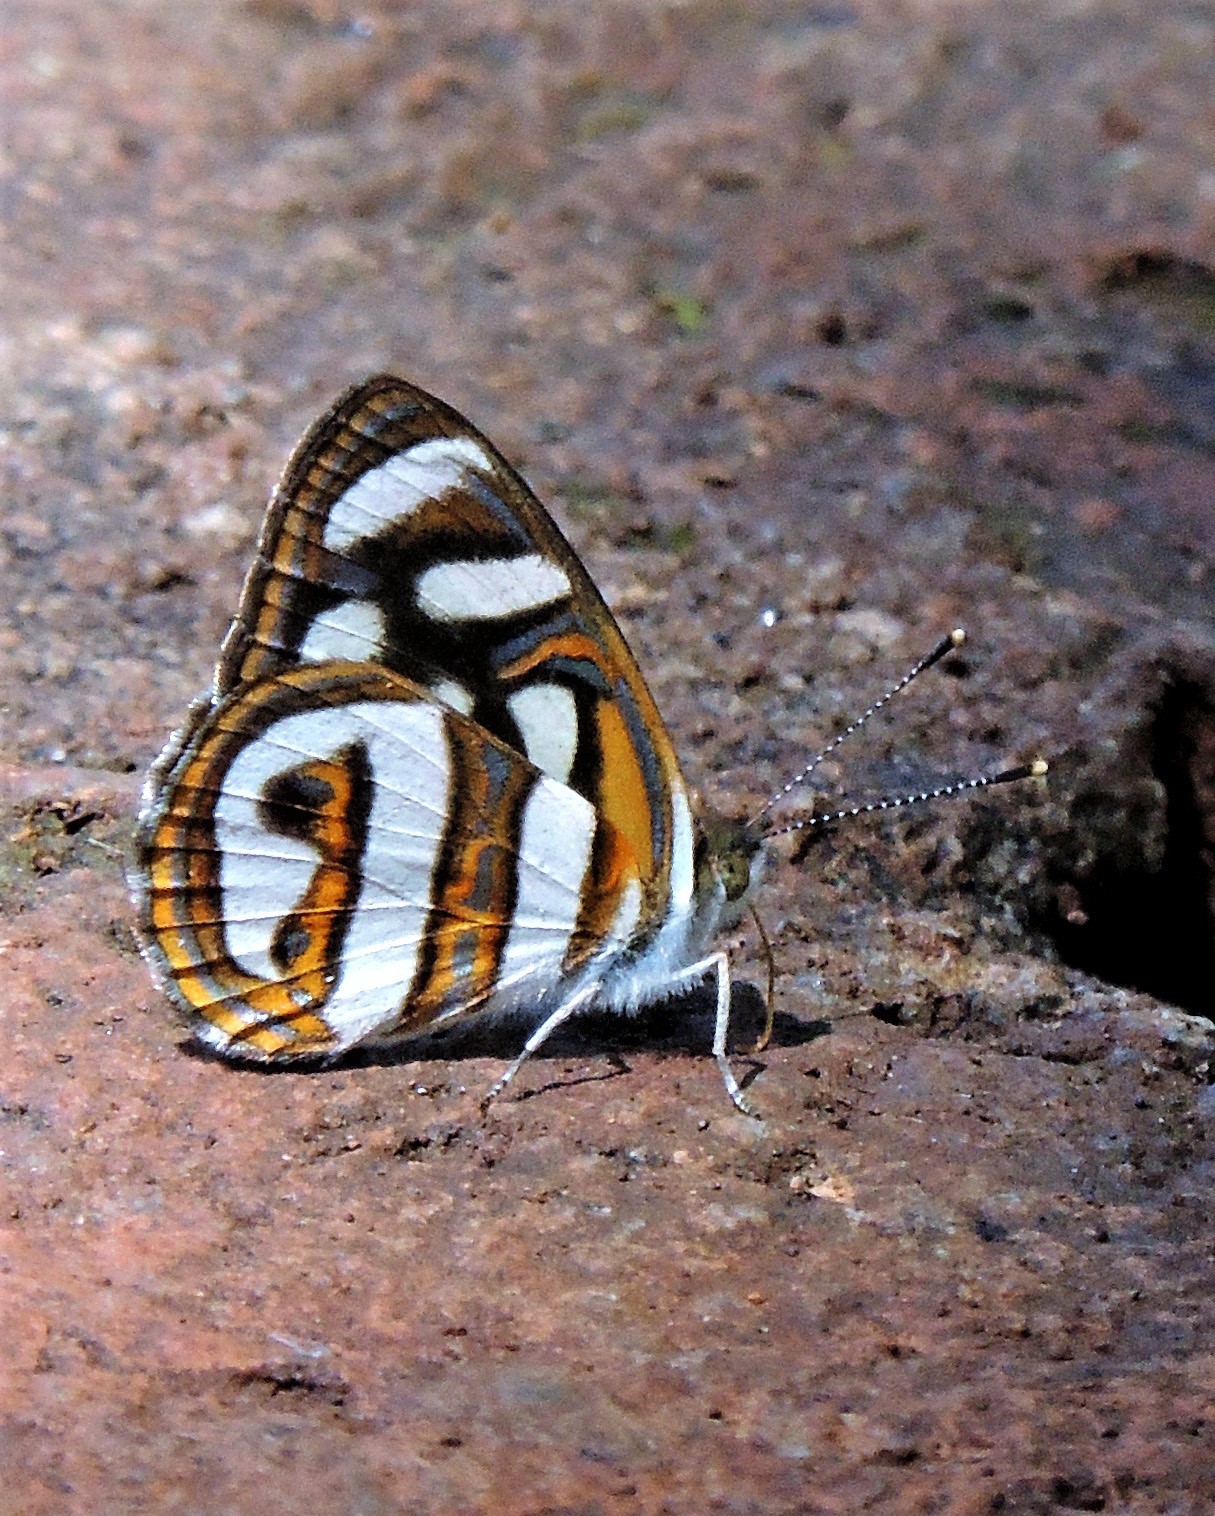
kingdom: Animalia
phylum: Arthropoda
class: Insecta
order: Lepidoptera
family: Nymphalidae
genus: Dynamine
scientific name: Dynamine artemisia
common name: Small-eyed sailor
